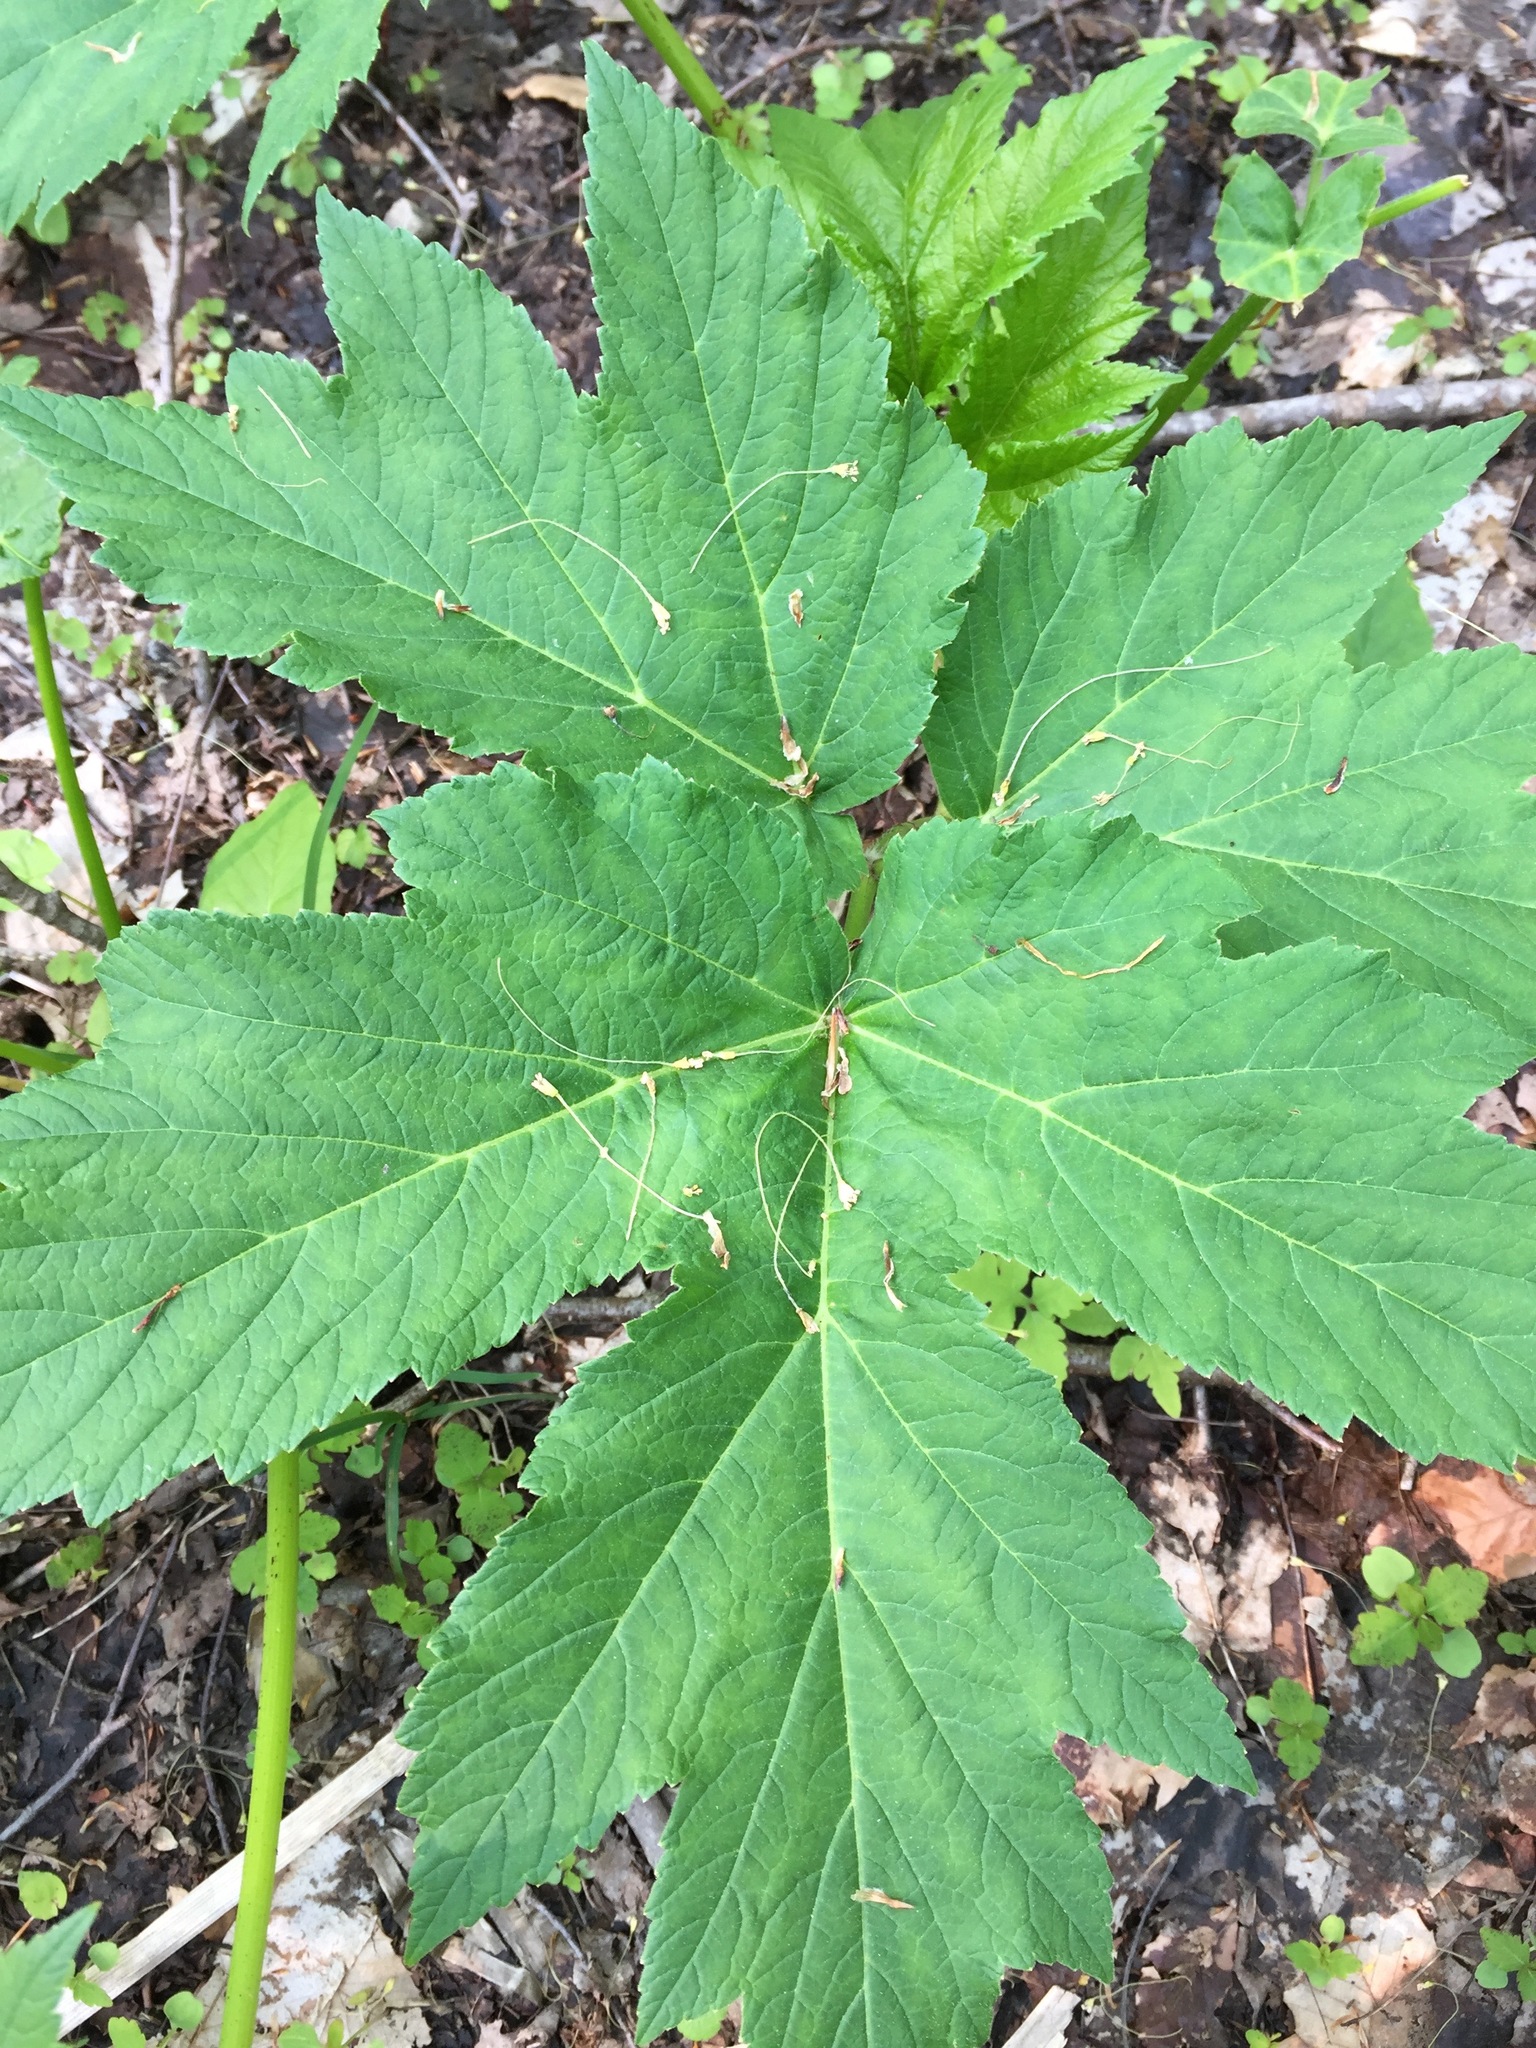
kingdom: Plantae
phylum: Tracheophyta
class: Magnoliopsida
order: Apiales
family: Apiaceae
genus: Heracleum
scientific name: Heracleum maximum
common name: American cow parsnip
